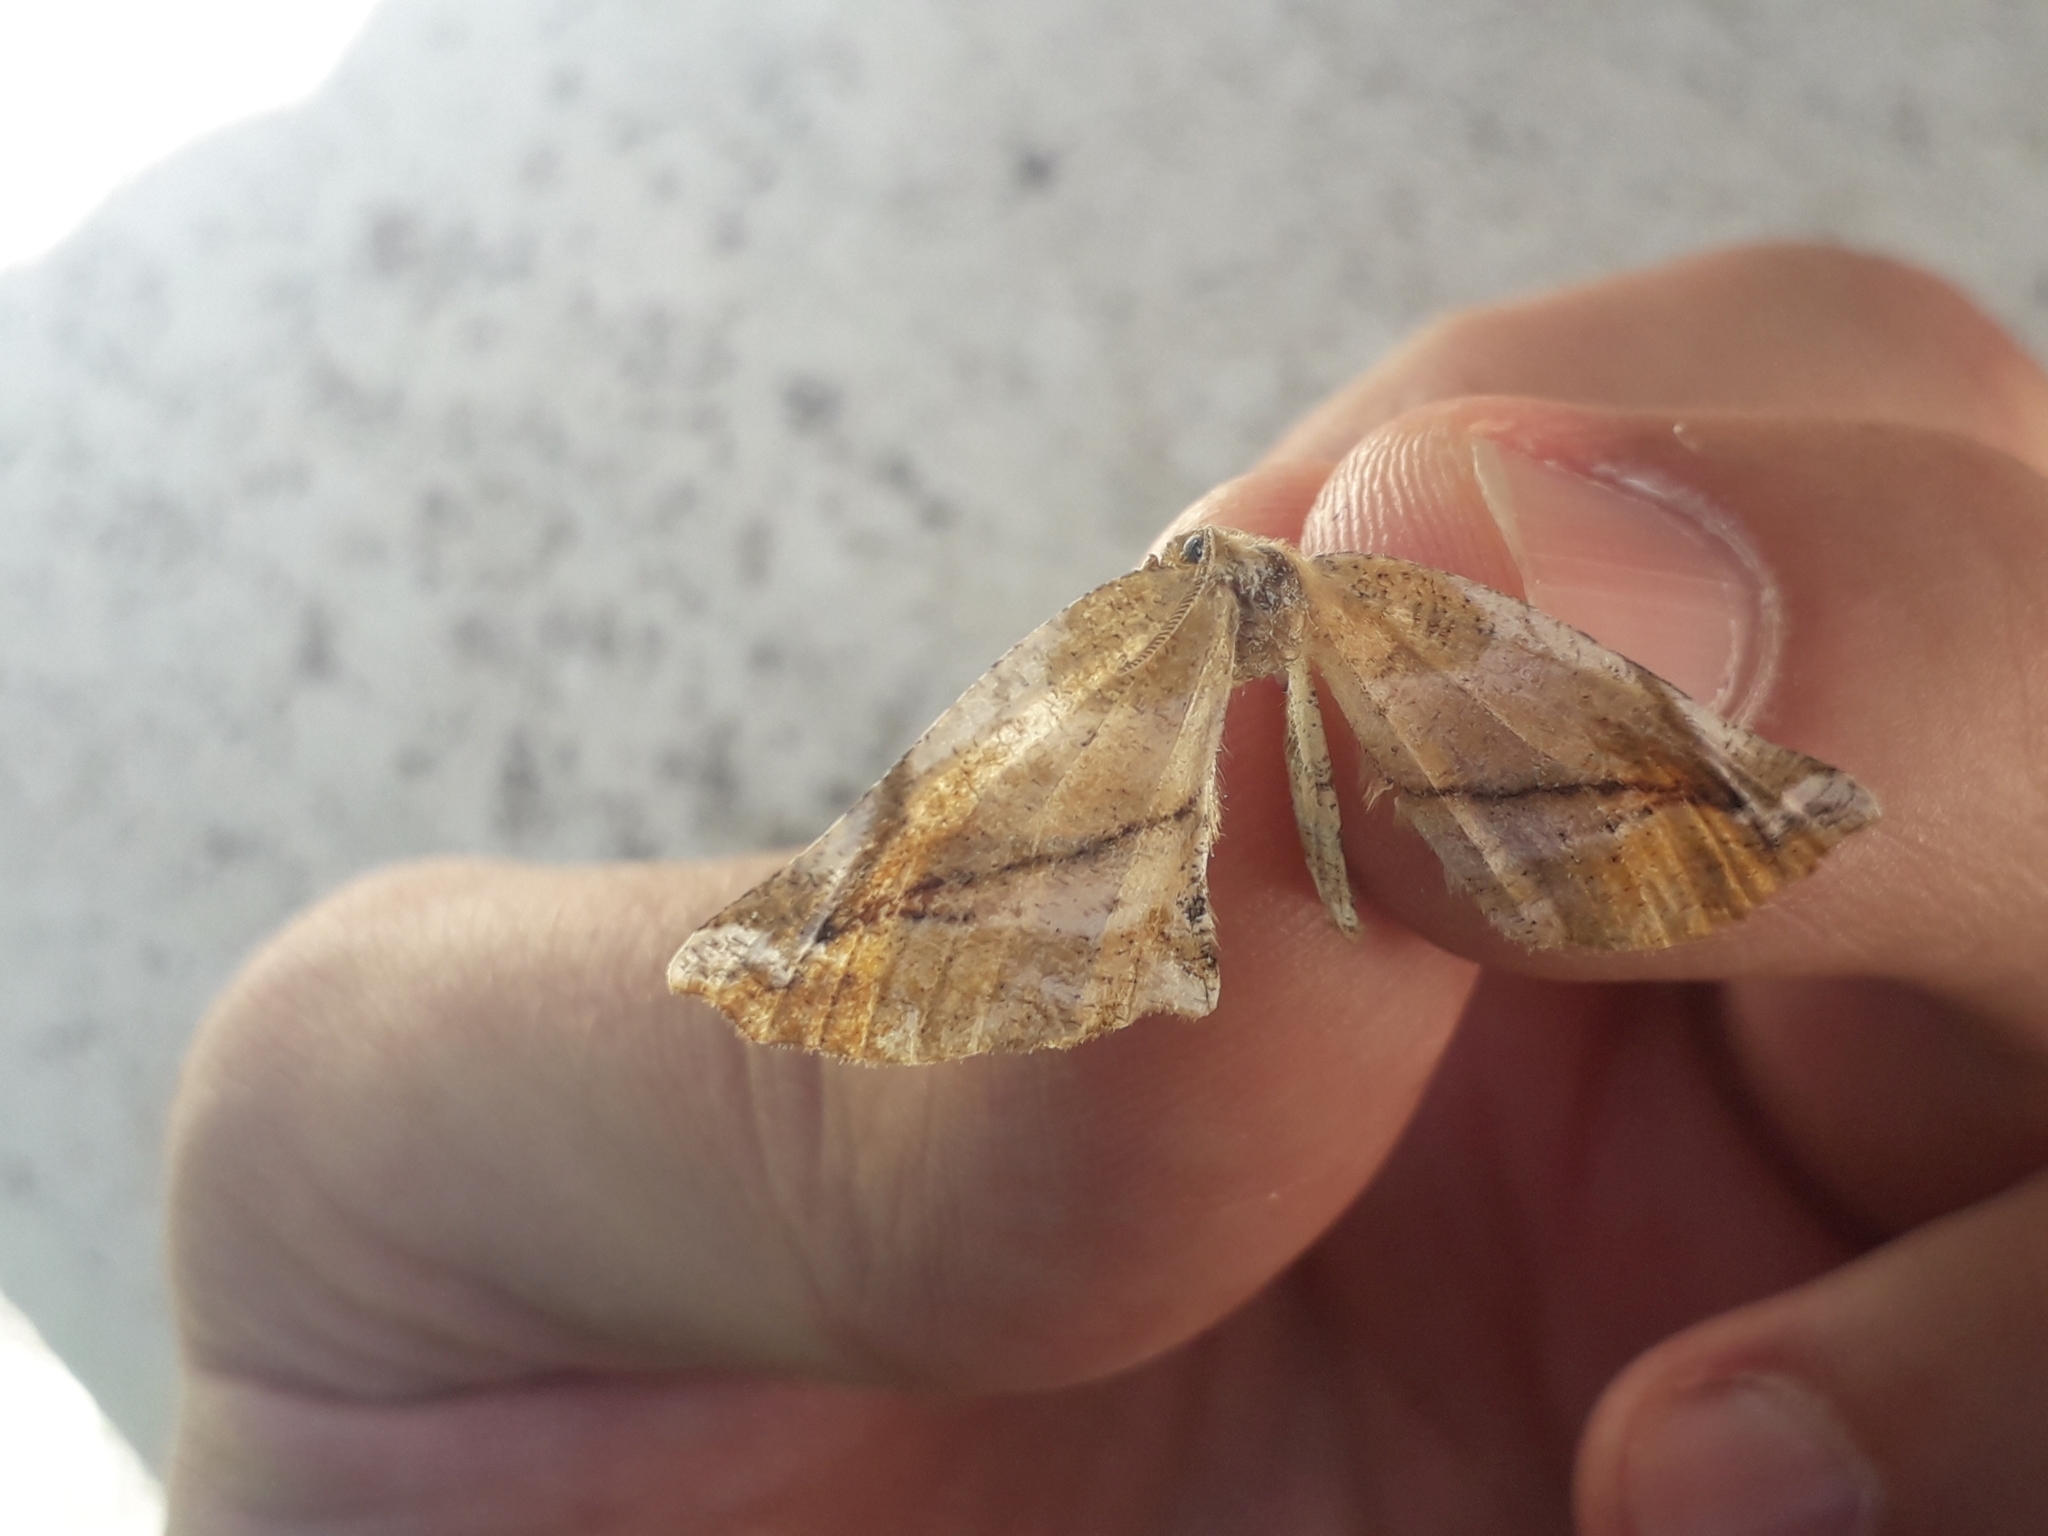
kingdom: Animalia
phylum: Arthropoda
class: Insecta
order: Lepidoptera
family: Geometridae
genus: Apeira
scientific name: Apeira syringaria
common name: Lilac beauty
